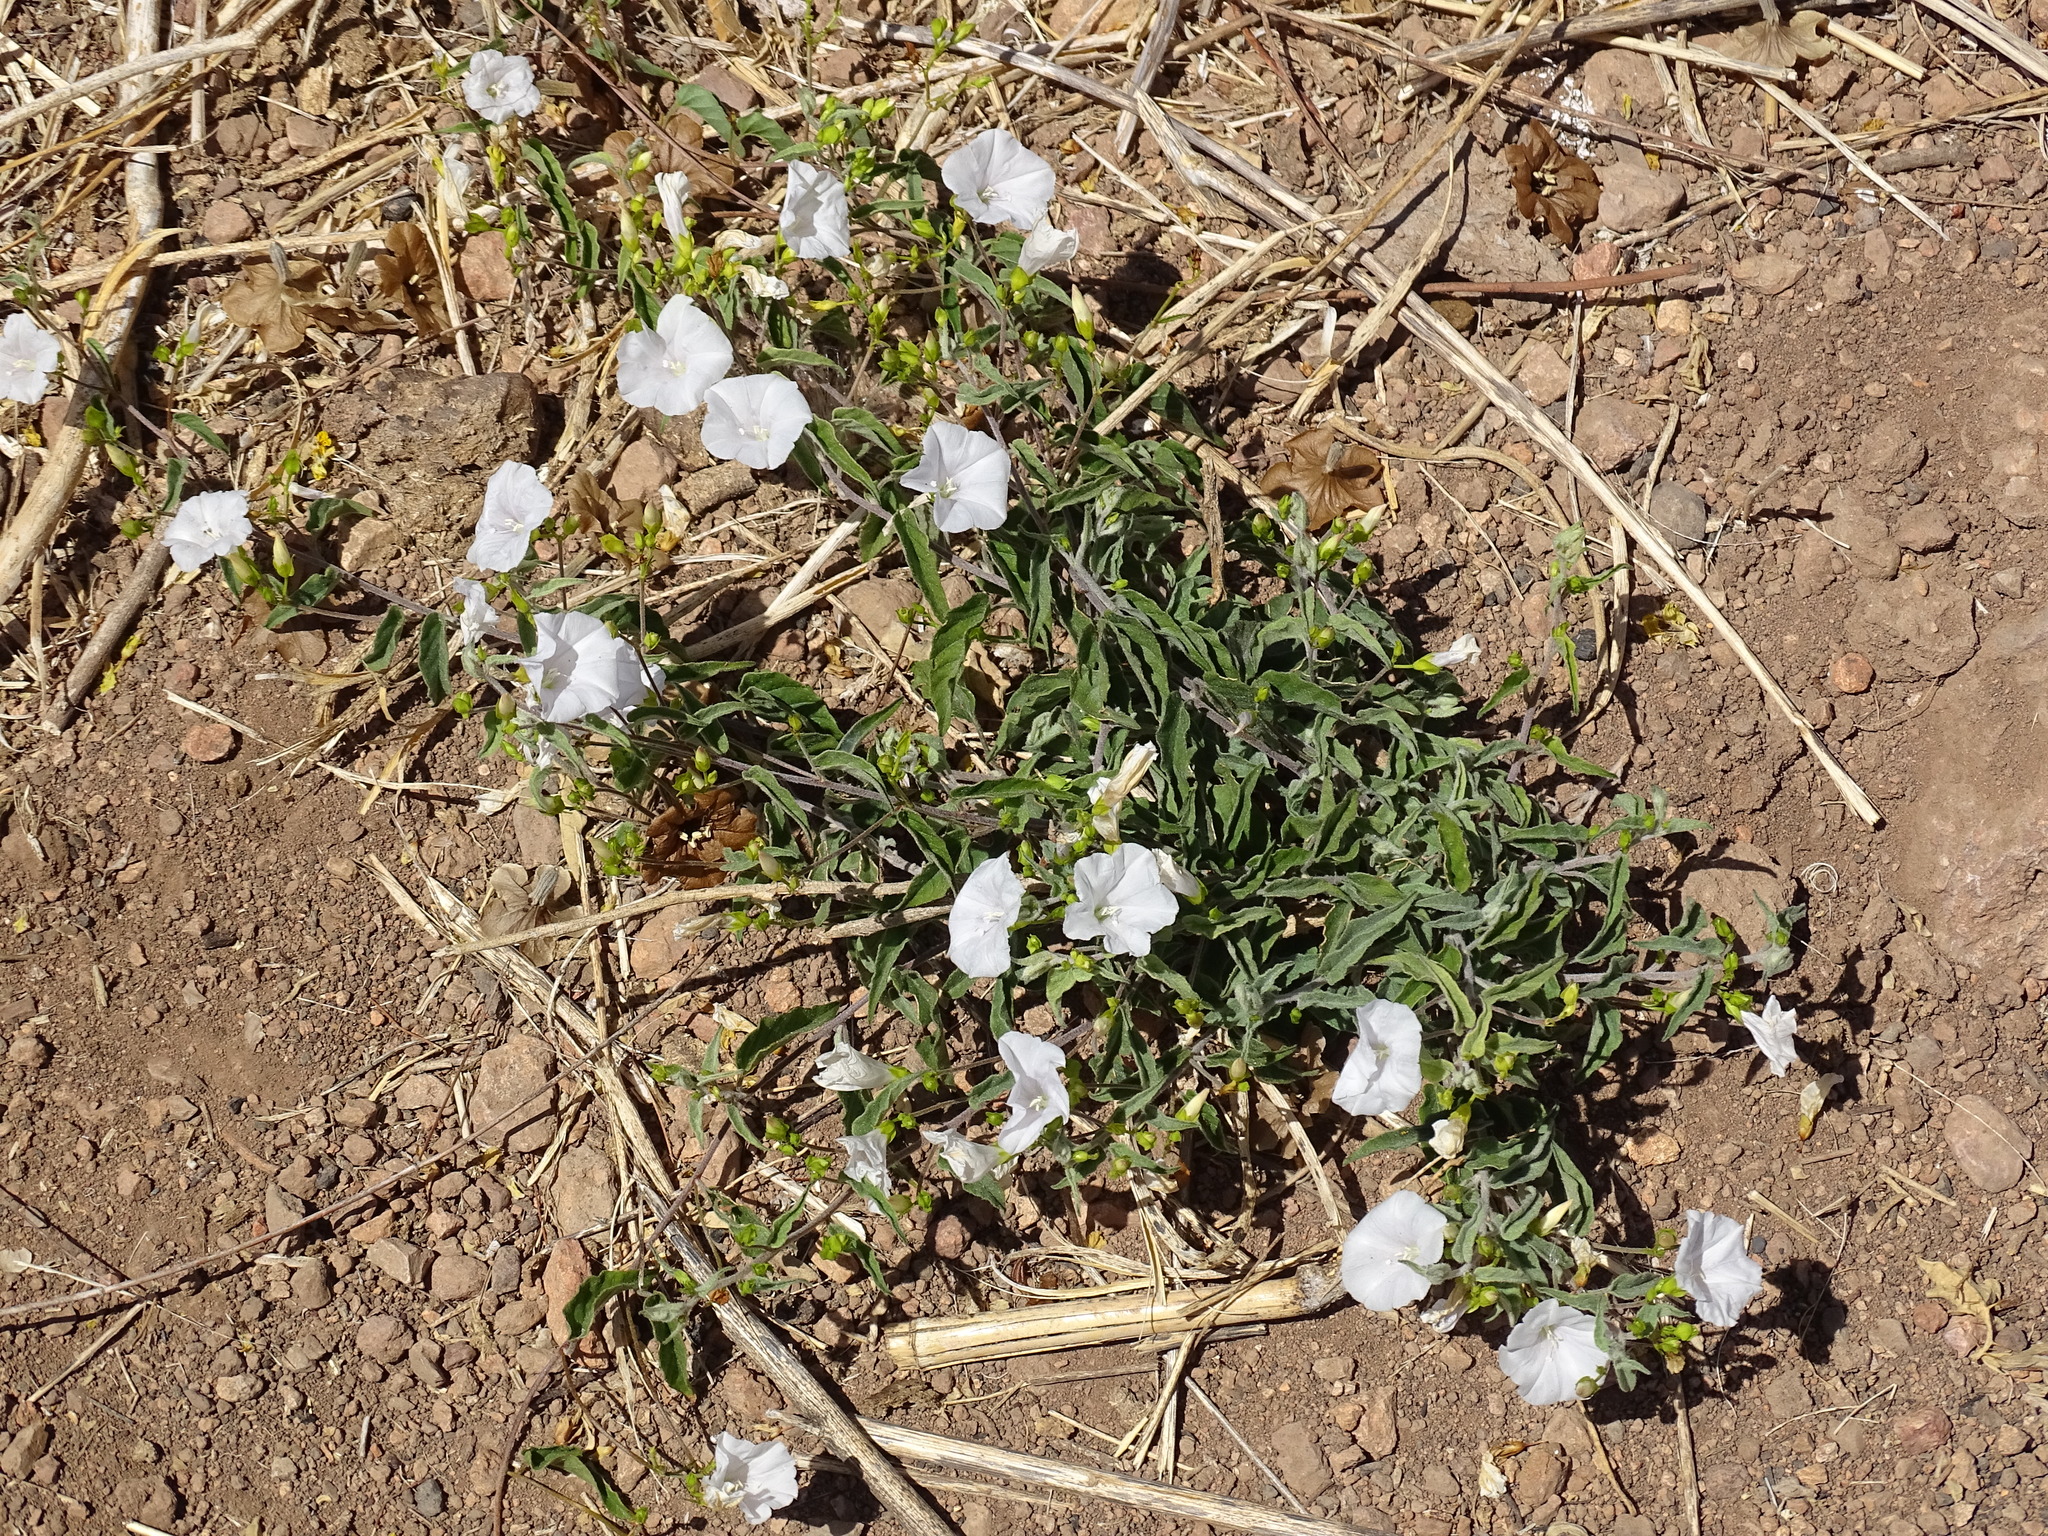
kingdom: Plantae
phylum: Tracheophyta
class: Magnoliopsida
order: Solanales
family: Convolvulaceae
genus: Jacquemontia
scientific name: Jacquemontia pringlei
